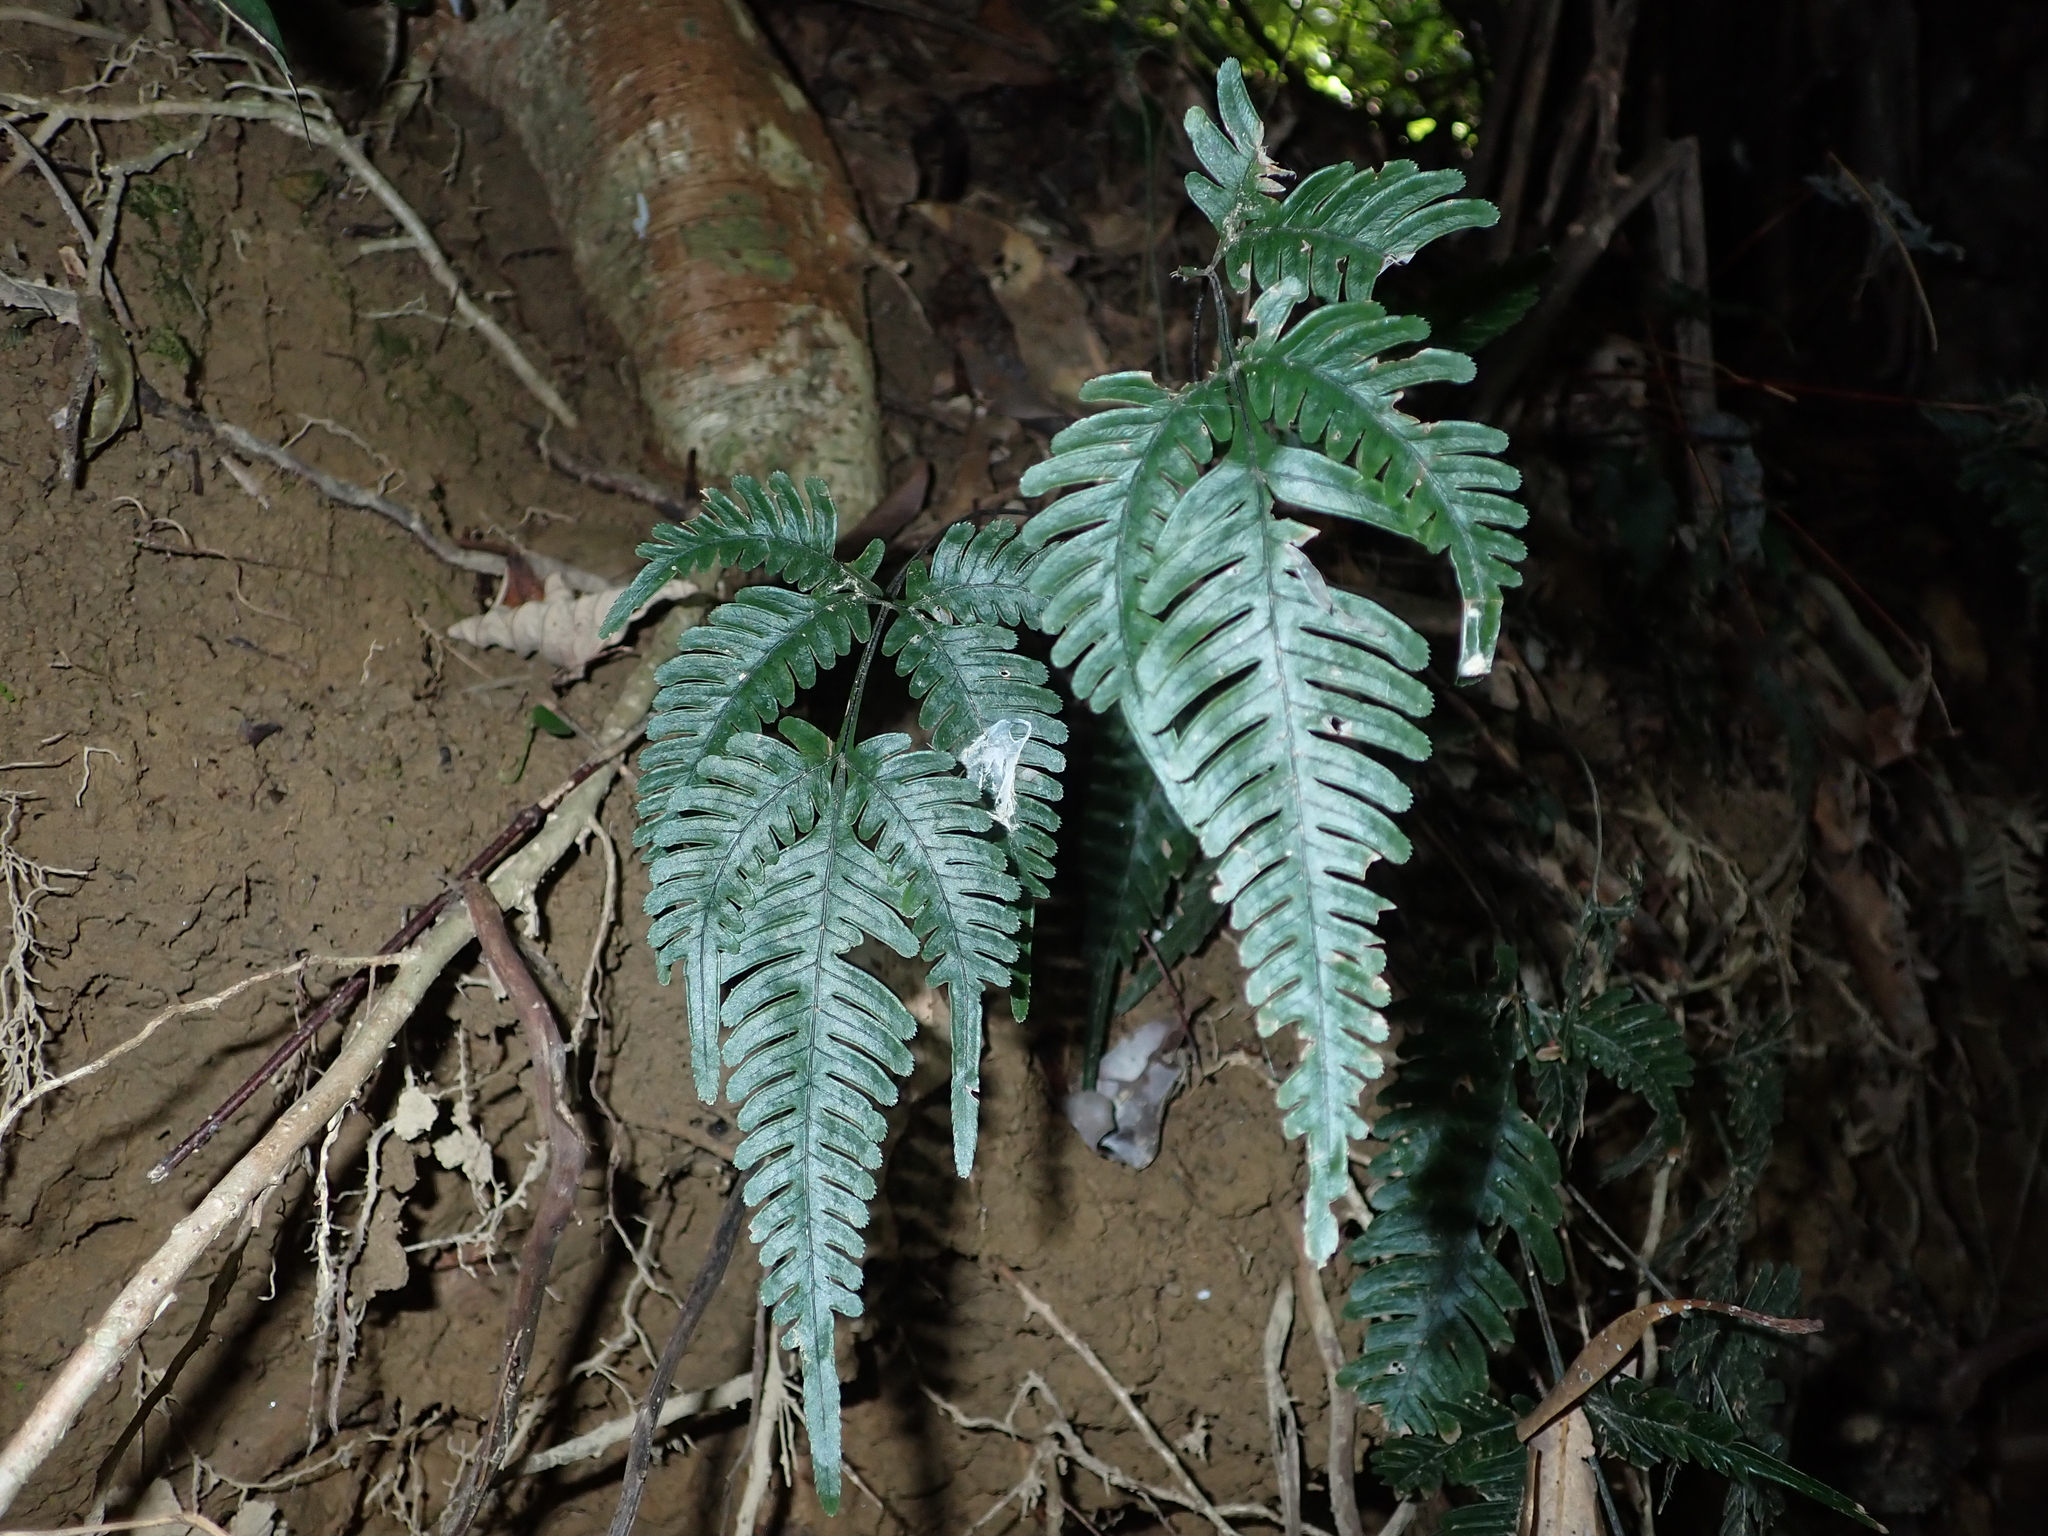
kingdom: Plantae
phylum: Tracheophyta
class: Polypodiopsida
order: Polypodiales
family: Pteridaceae
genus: Pteris
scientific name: Pteris grevilleana
